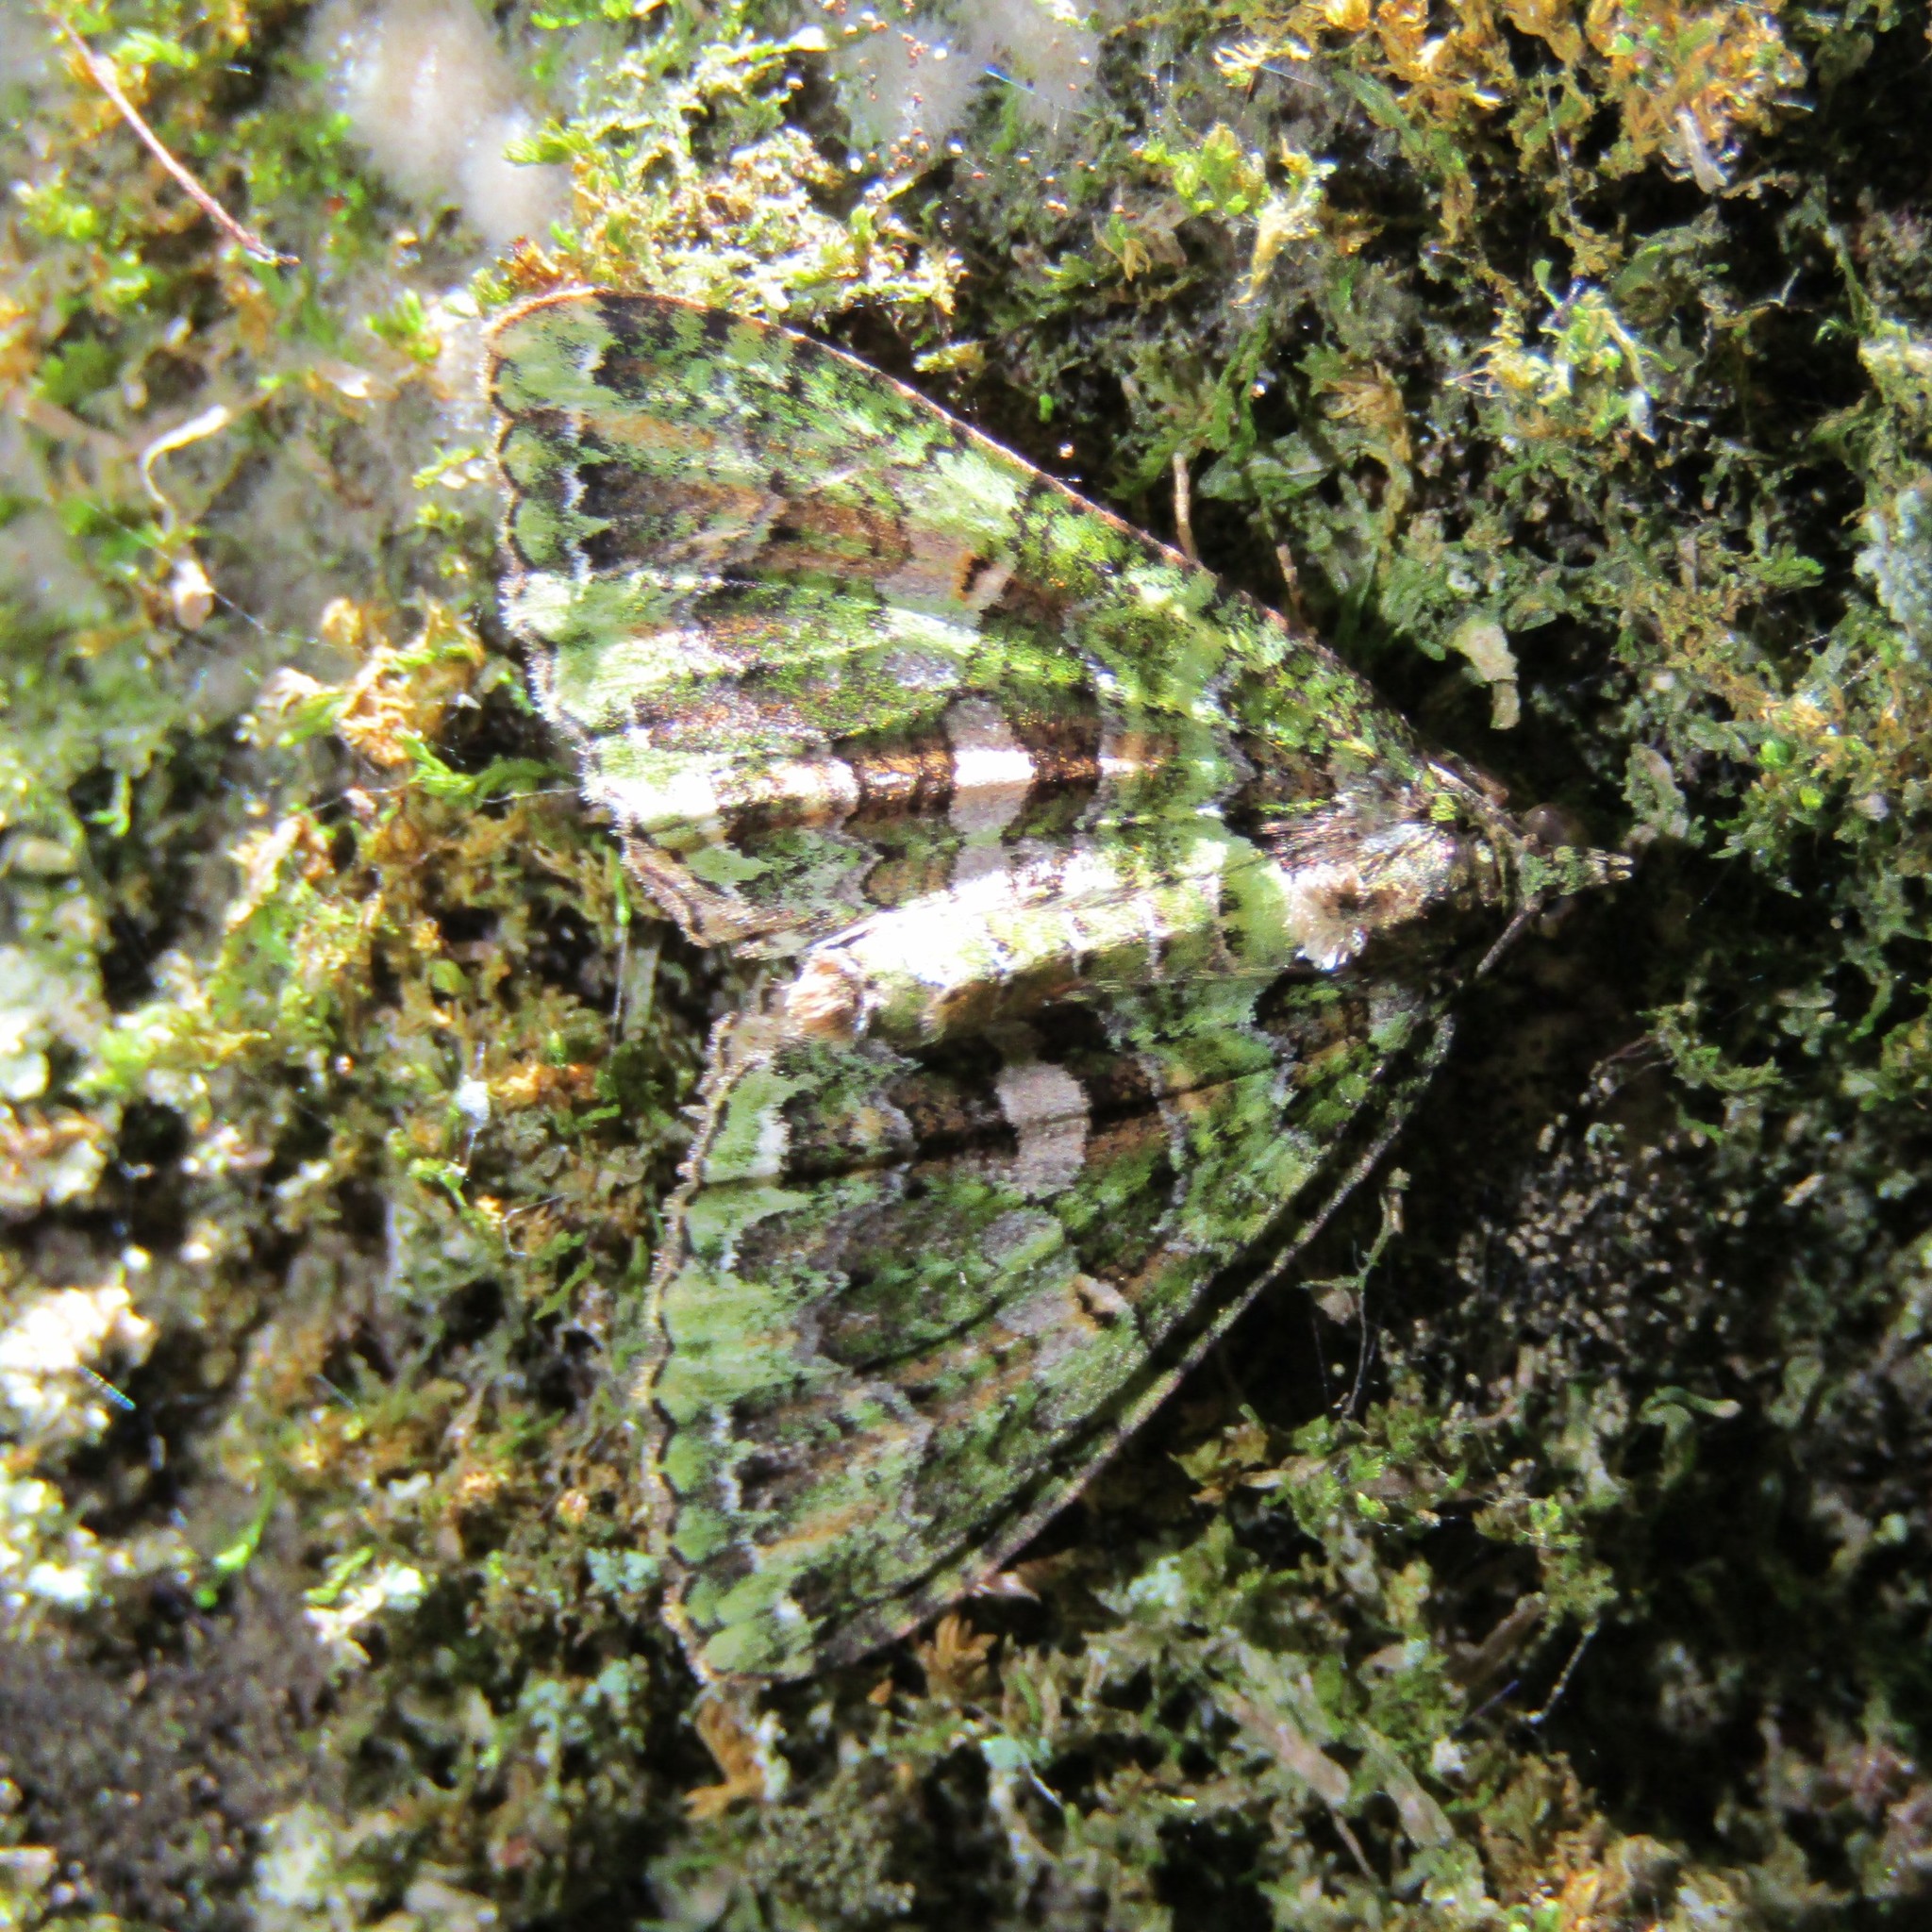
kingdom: Animalia
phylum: Arthropoda
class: Insecta
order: Lepidoptera
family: Geometridae
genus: Austrocidaria
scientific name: Austrocidaria similata
